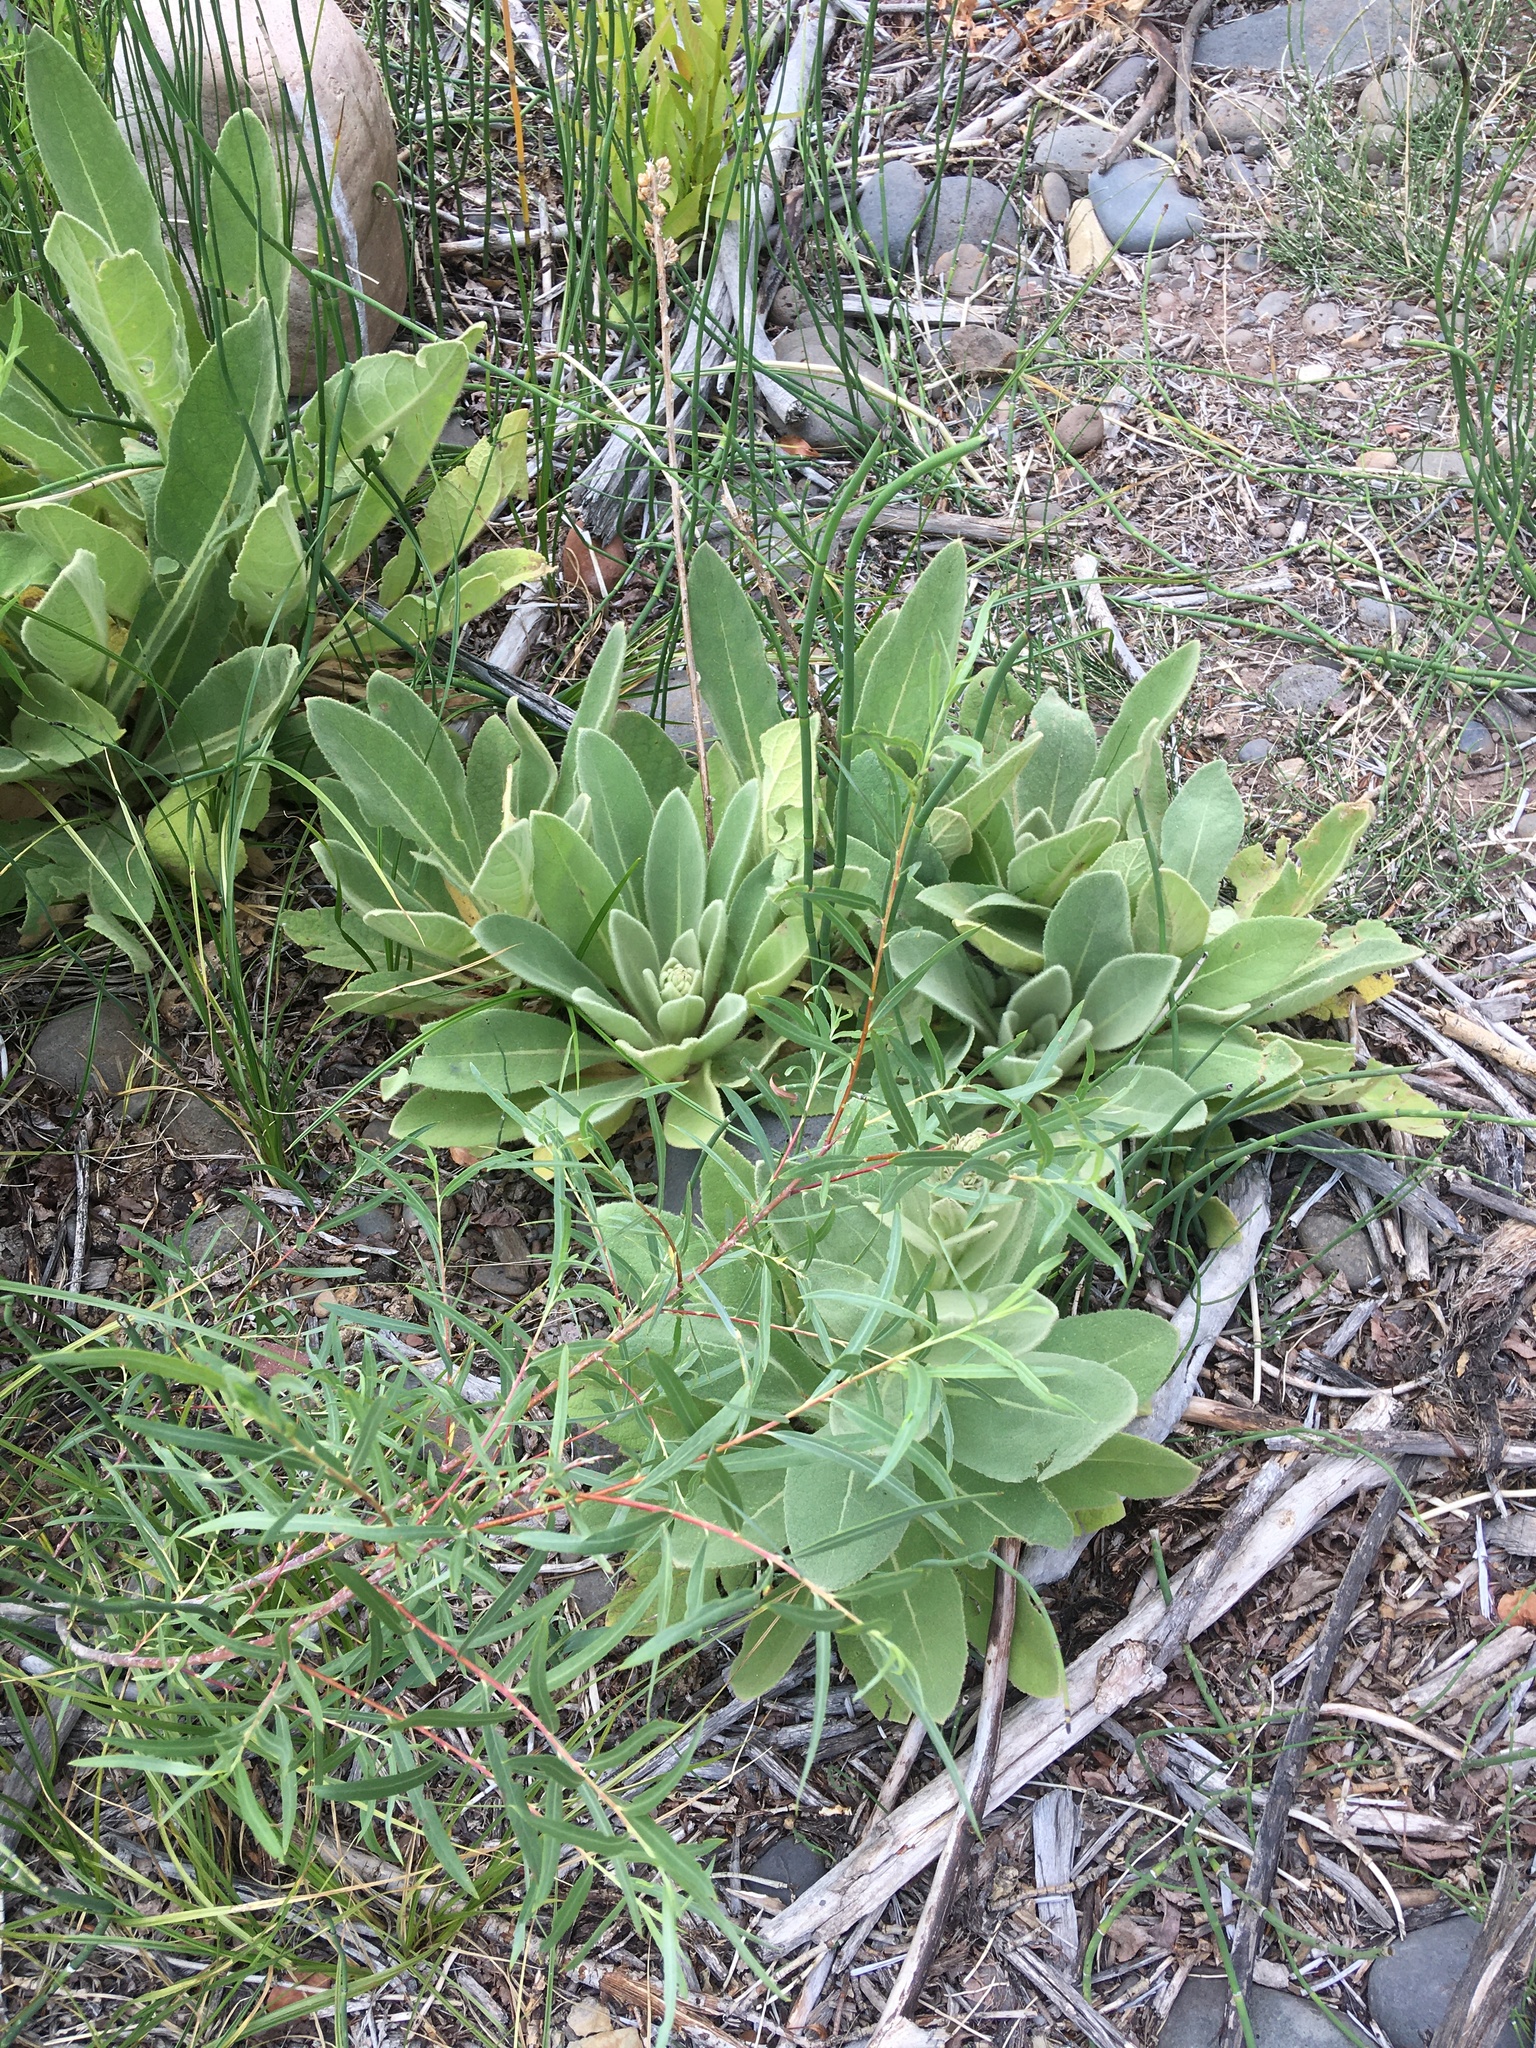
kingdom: Plantae
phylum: Tracheophyta
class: Magnoliopsida
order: Lamiales
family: Scrophulariaceae
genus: Verbascum
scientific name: Verbascum thapsus
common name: Common mullein
